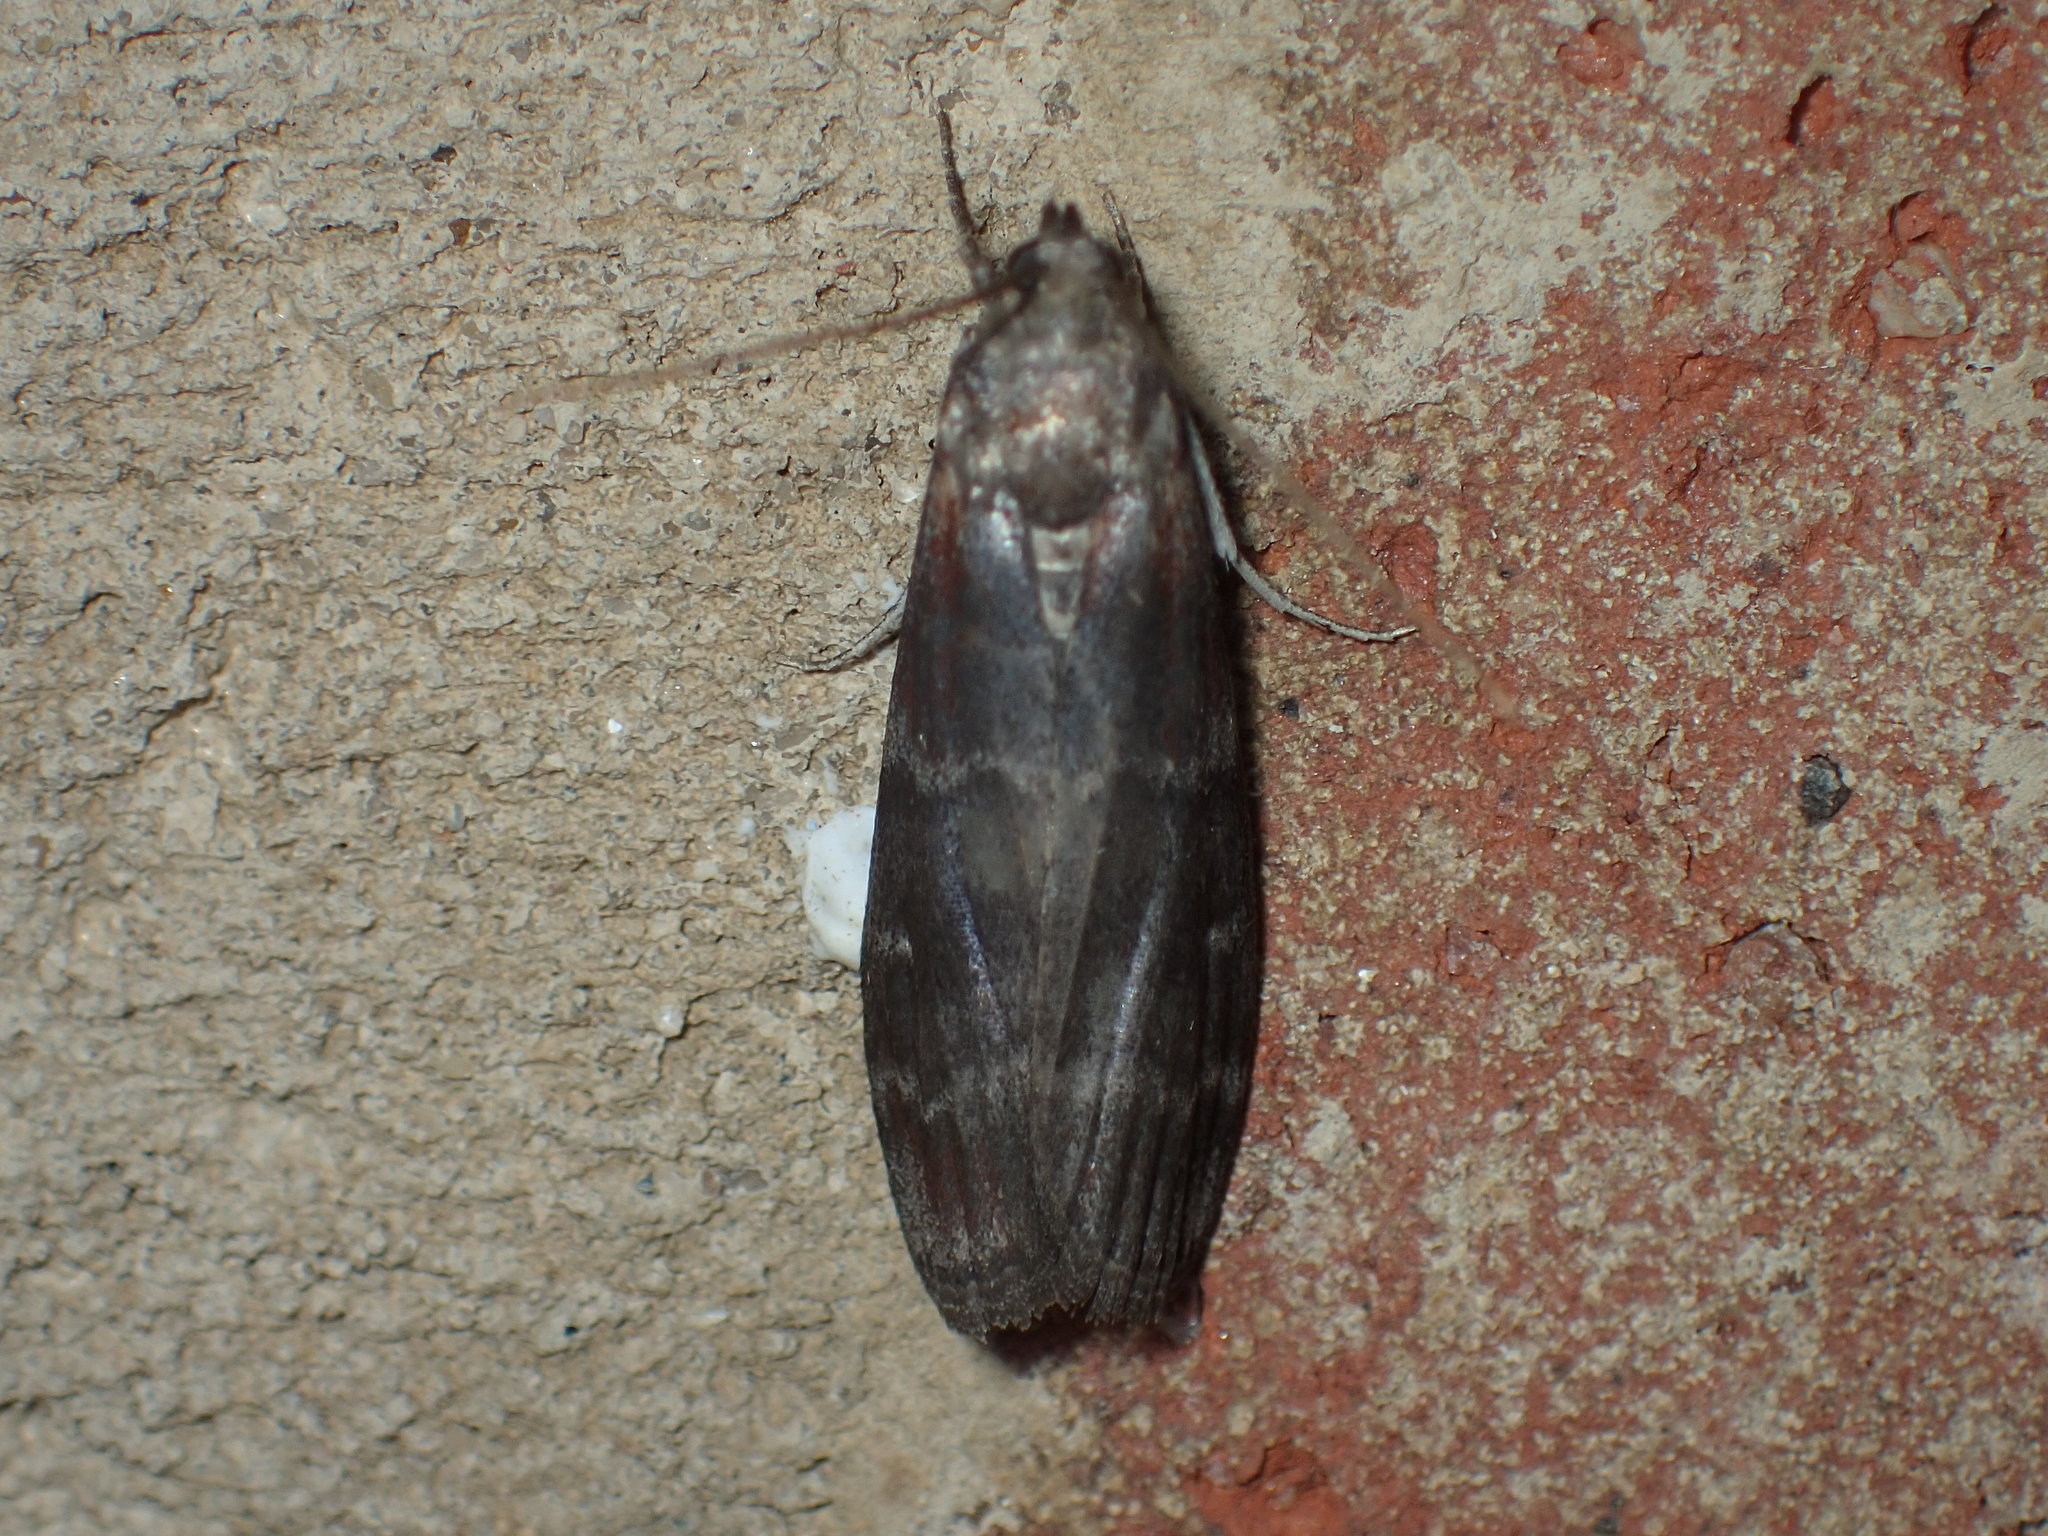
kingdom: Animalia
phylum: Arthropoda
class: Insecta
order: Lepidoptera
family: Pyralidae
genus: Euzophera
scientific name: Euzophera ostricolorella
